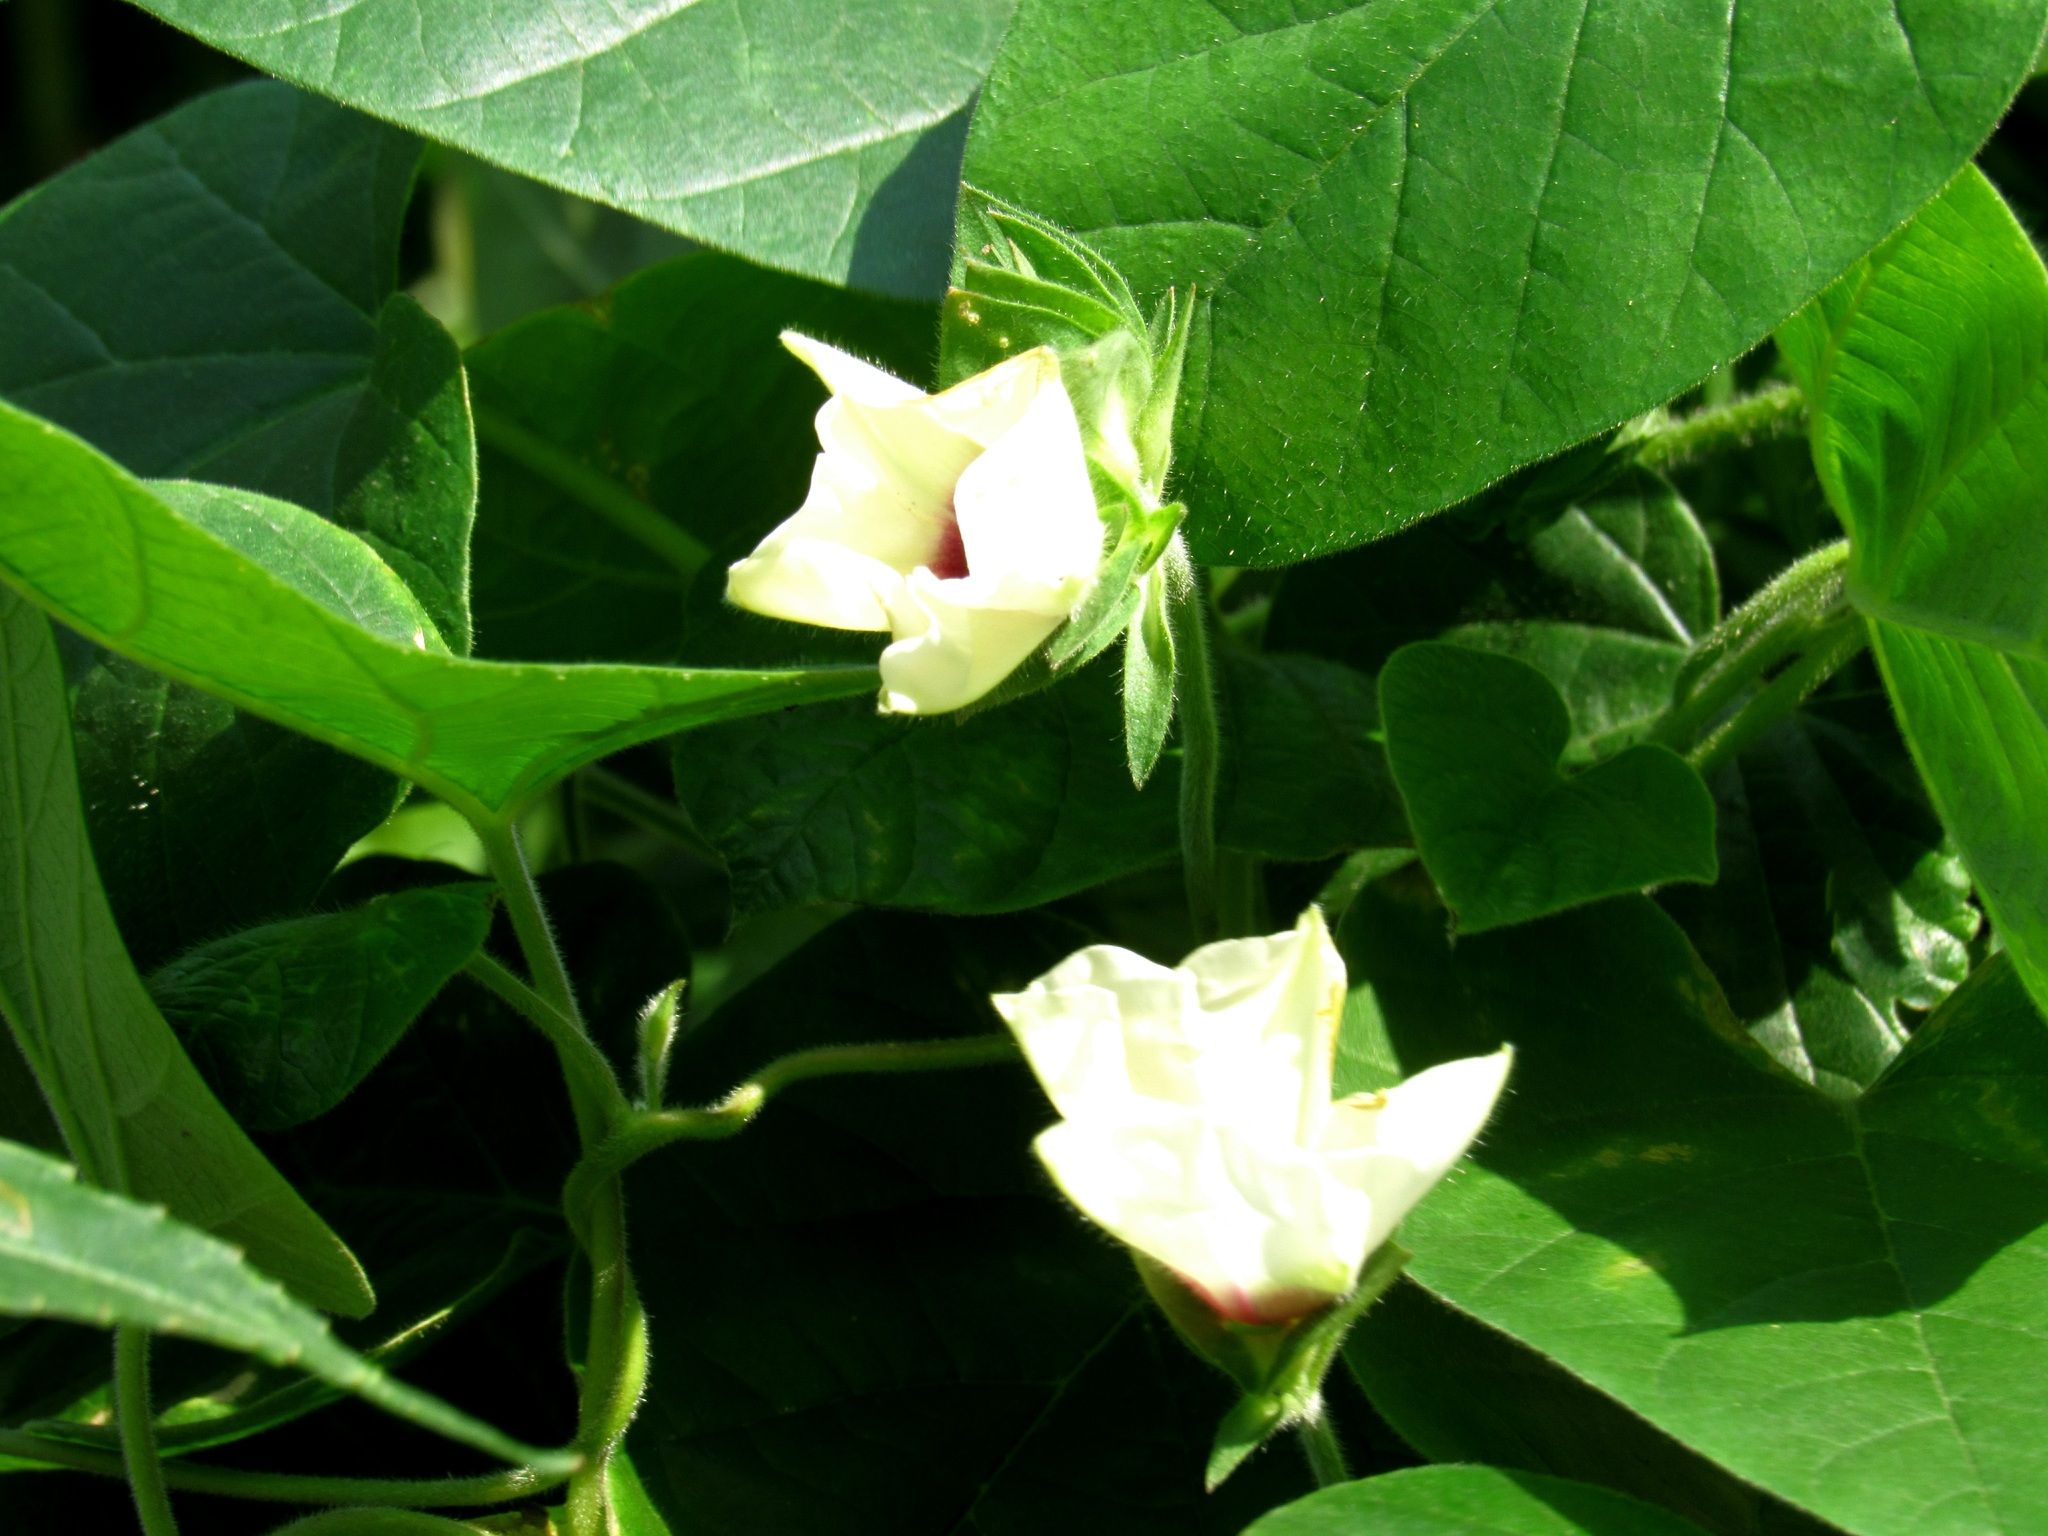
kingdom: Plantae
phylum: Tracheophyta
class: Magnoliopsida
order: Solanales
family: Convolvulaceae
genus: Hewittia
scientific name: Hewittia malabarica
